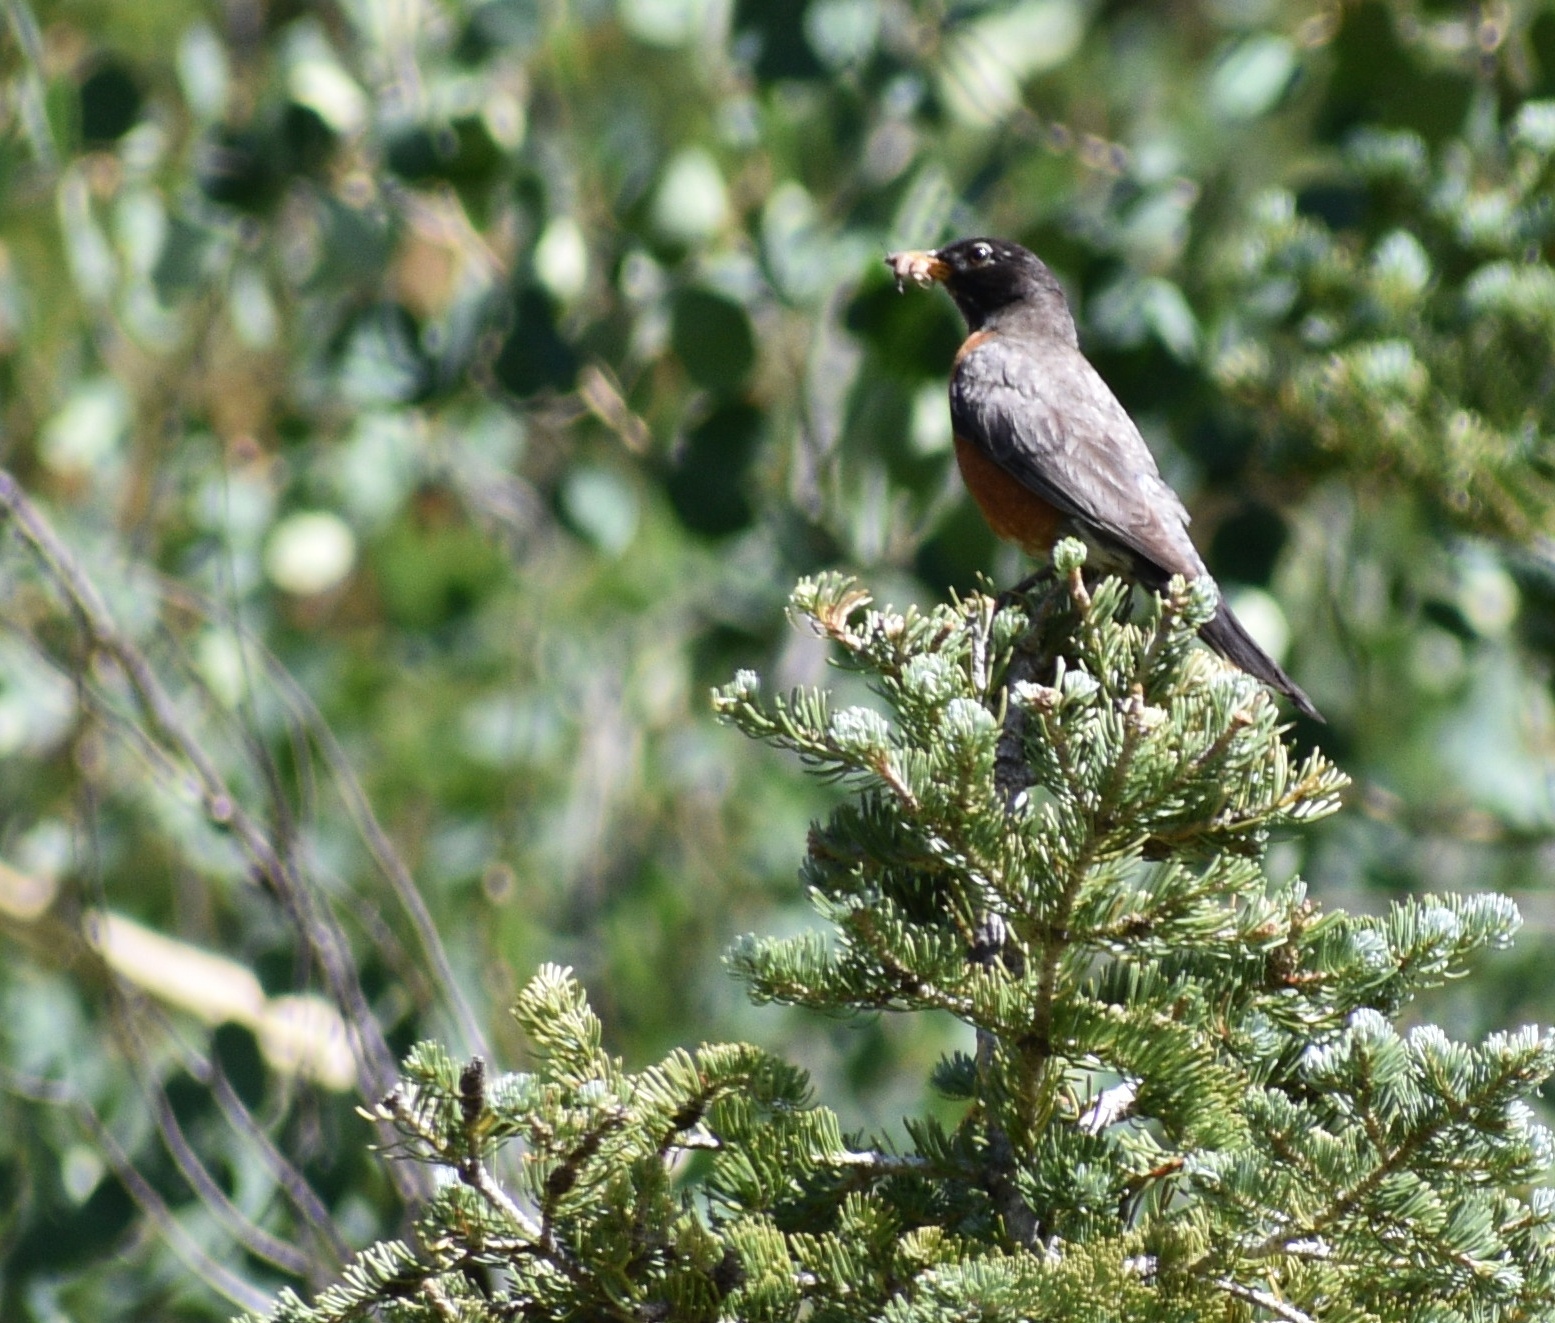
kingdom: Animalia
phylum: Chordata
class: Aves
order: Passeriformes
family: Turdidae
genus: Turdus
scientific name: Turdus migratorius
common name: American robin
